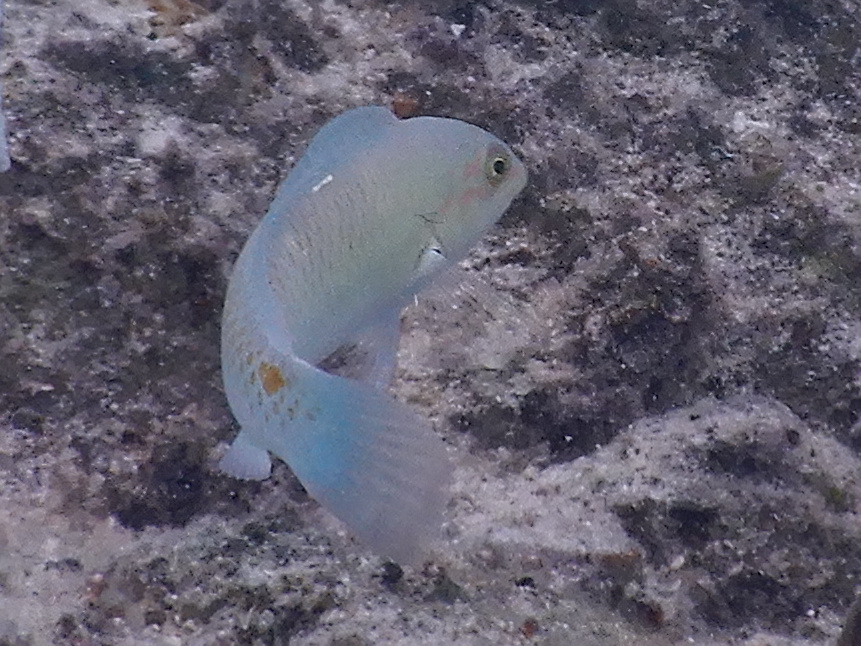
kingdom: Animalia
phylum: Chordata
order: Perciformes
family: Labridae
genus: Halichoeres
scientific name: Halichoeres trimaculatus
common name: Three-spot wrasse
